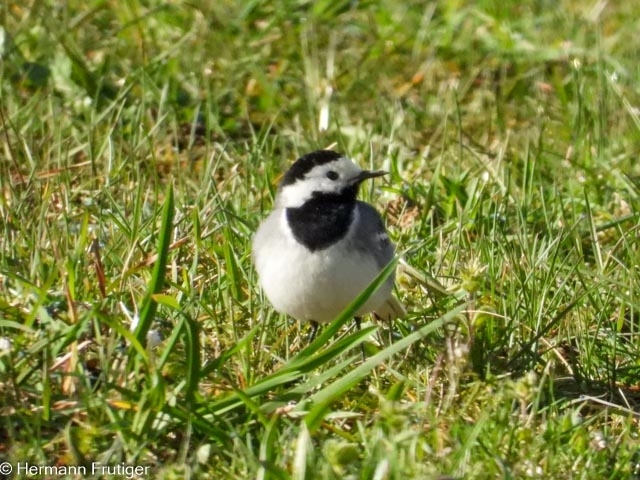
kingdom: Animalia
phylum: Chordata
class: Aves
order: Passeriformes
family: Motacillidae
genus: Motacilla
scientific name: Motacilla alba
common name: White wagtail
